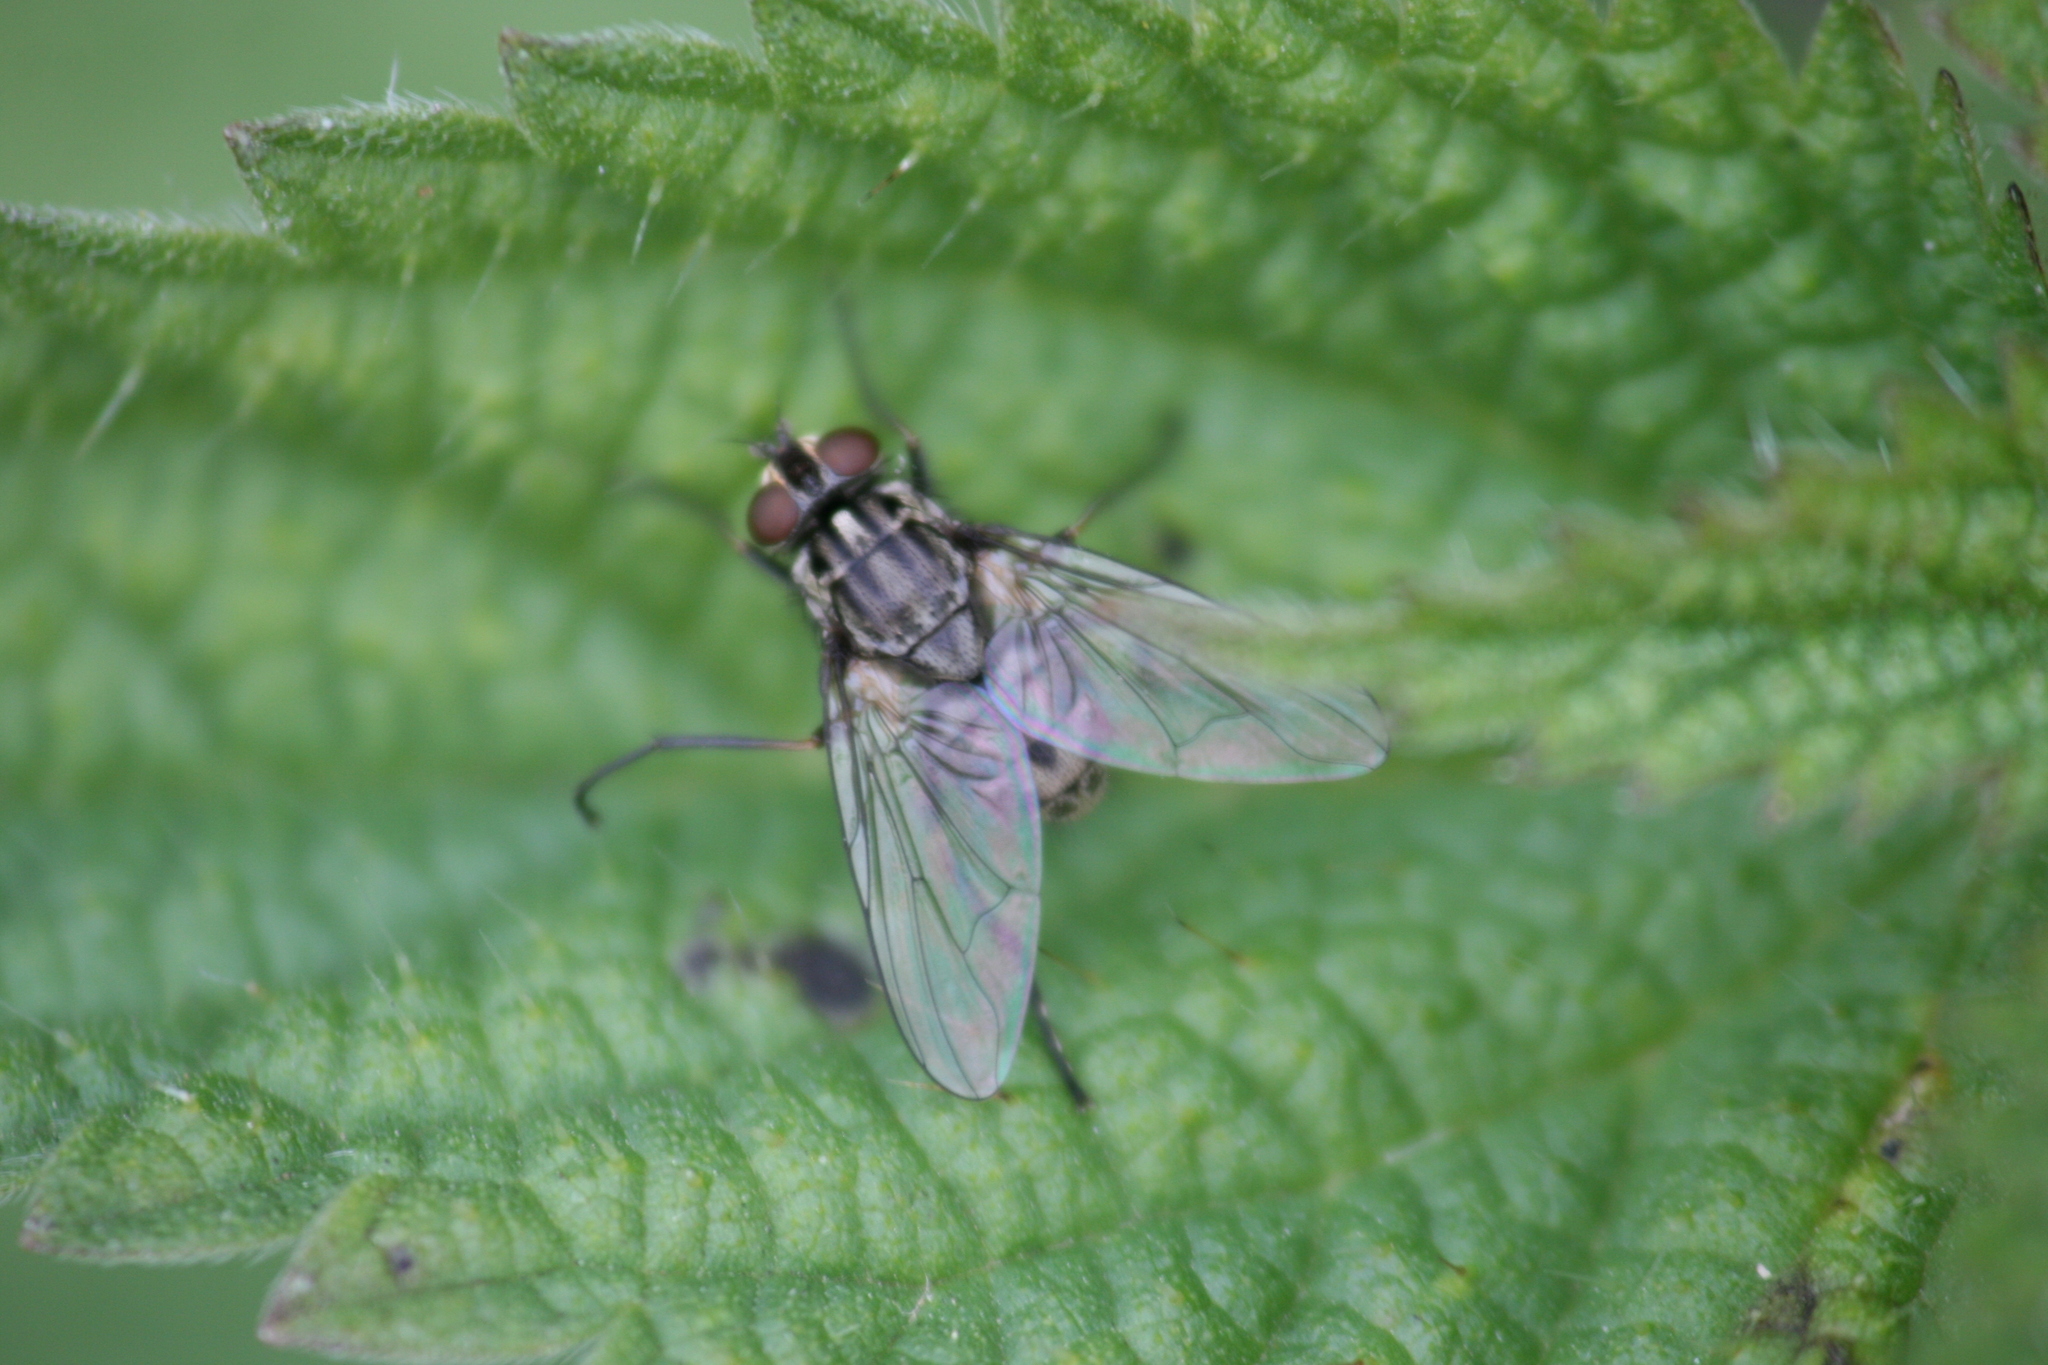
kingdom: Animalia
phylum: Arthropoda
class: Insecta
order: Diptera
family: Muscidae
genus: Stomoxys
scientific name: Stomoxys calcitrans
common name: Stable fly
